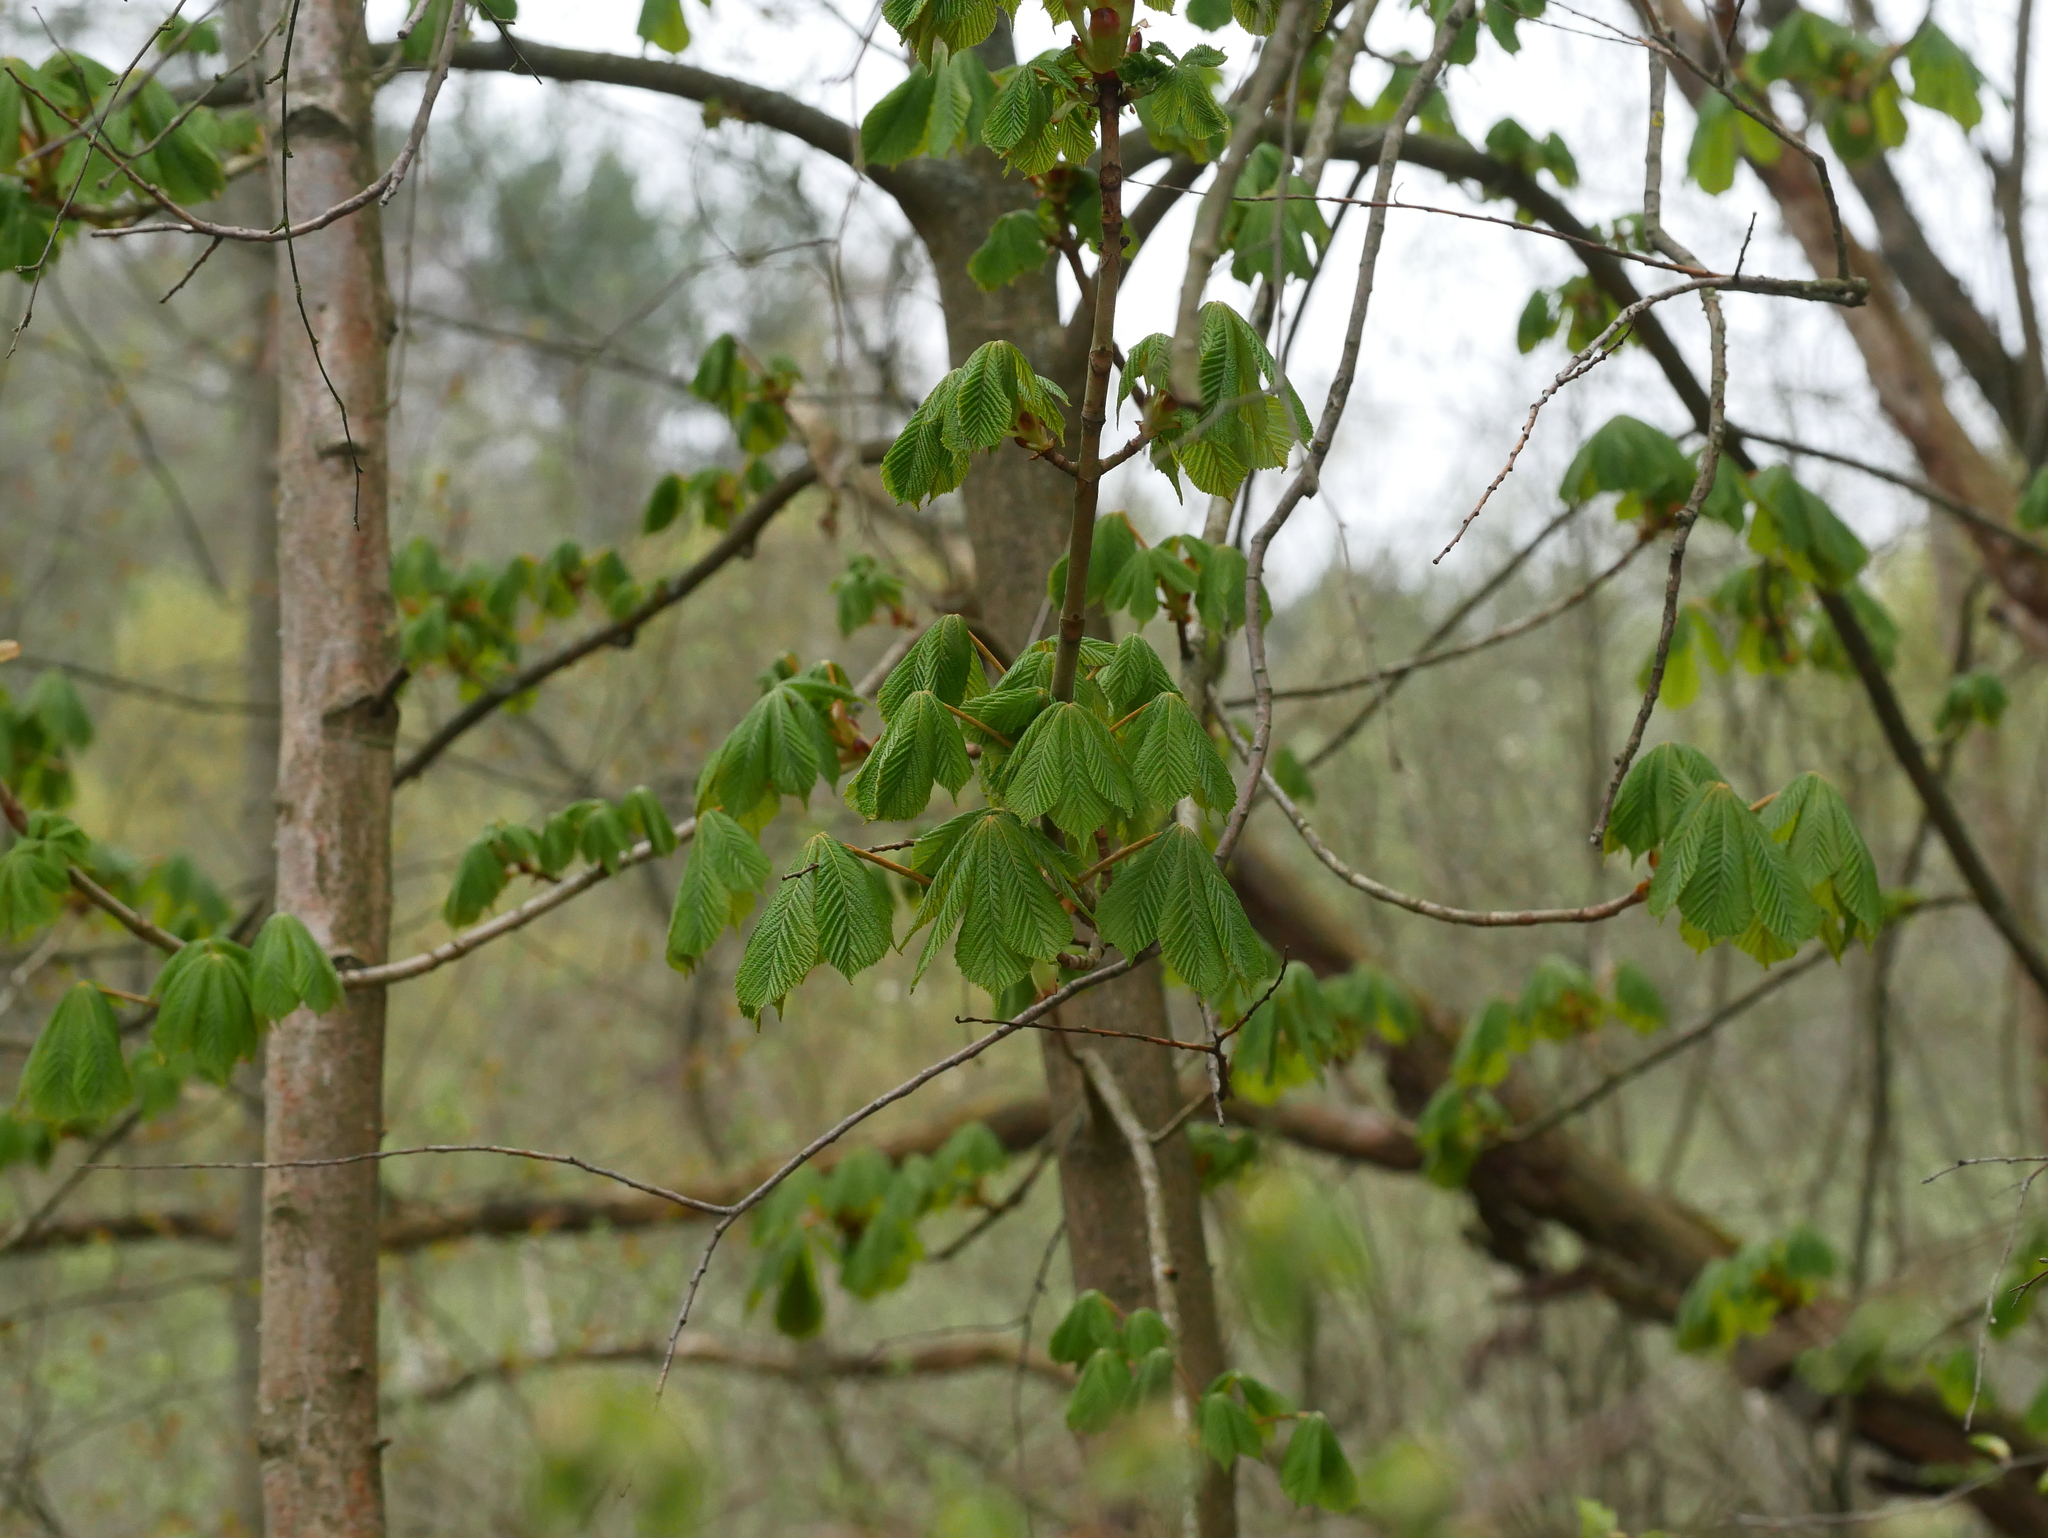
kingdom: Plantae
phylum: Tracheophyta
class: Magnoliopsida
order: Sapindales
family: Sapindaceae
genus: Aesculus
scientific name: Aesculus hippocastanum
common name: Horse-chestnut
